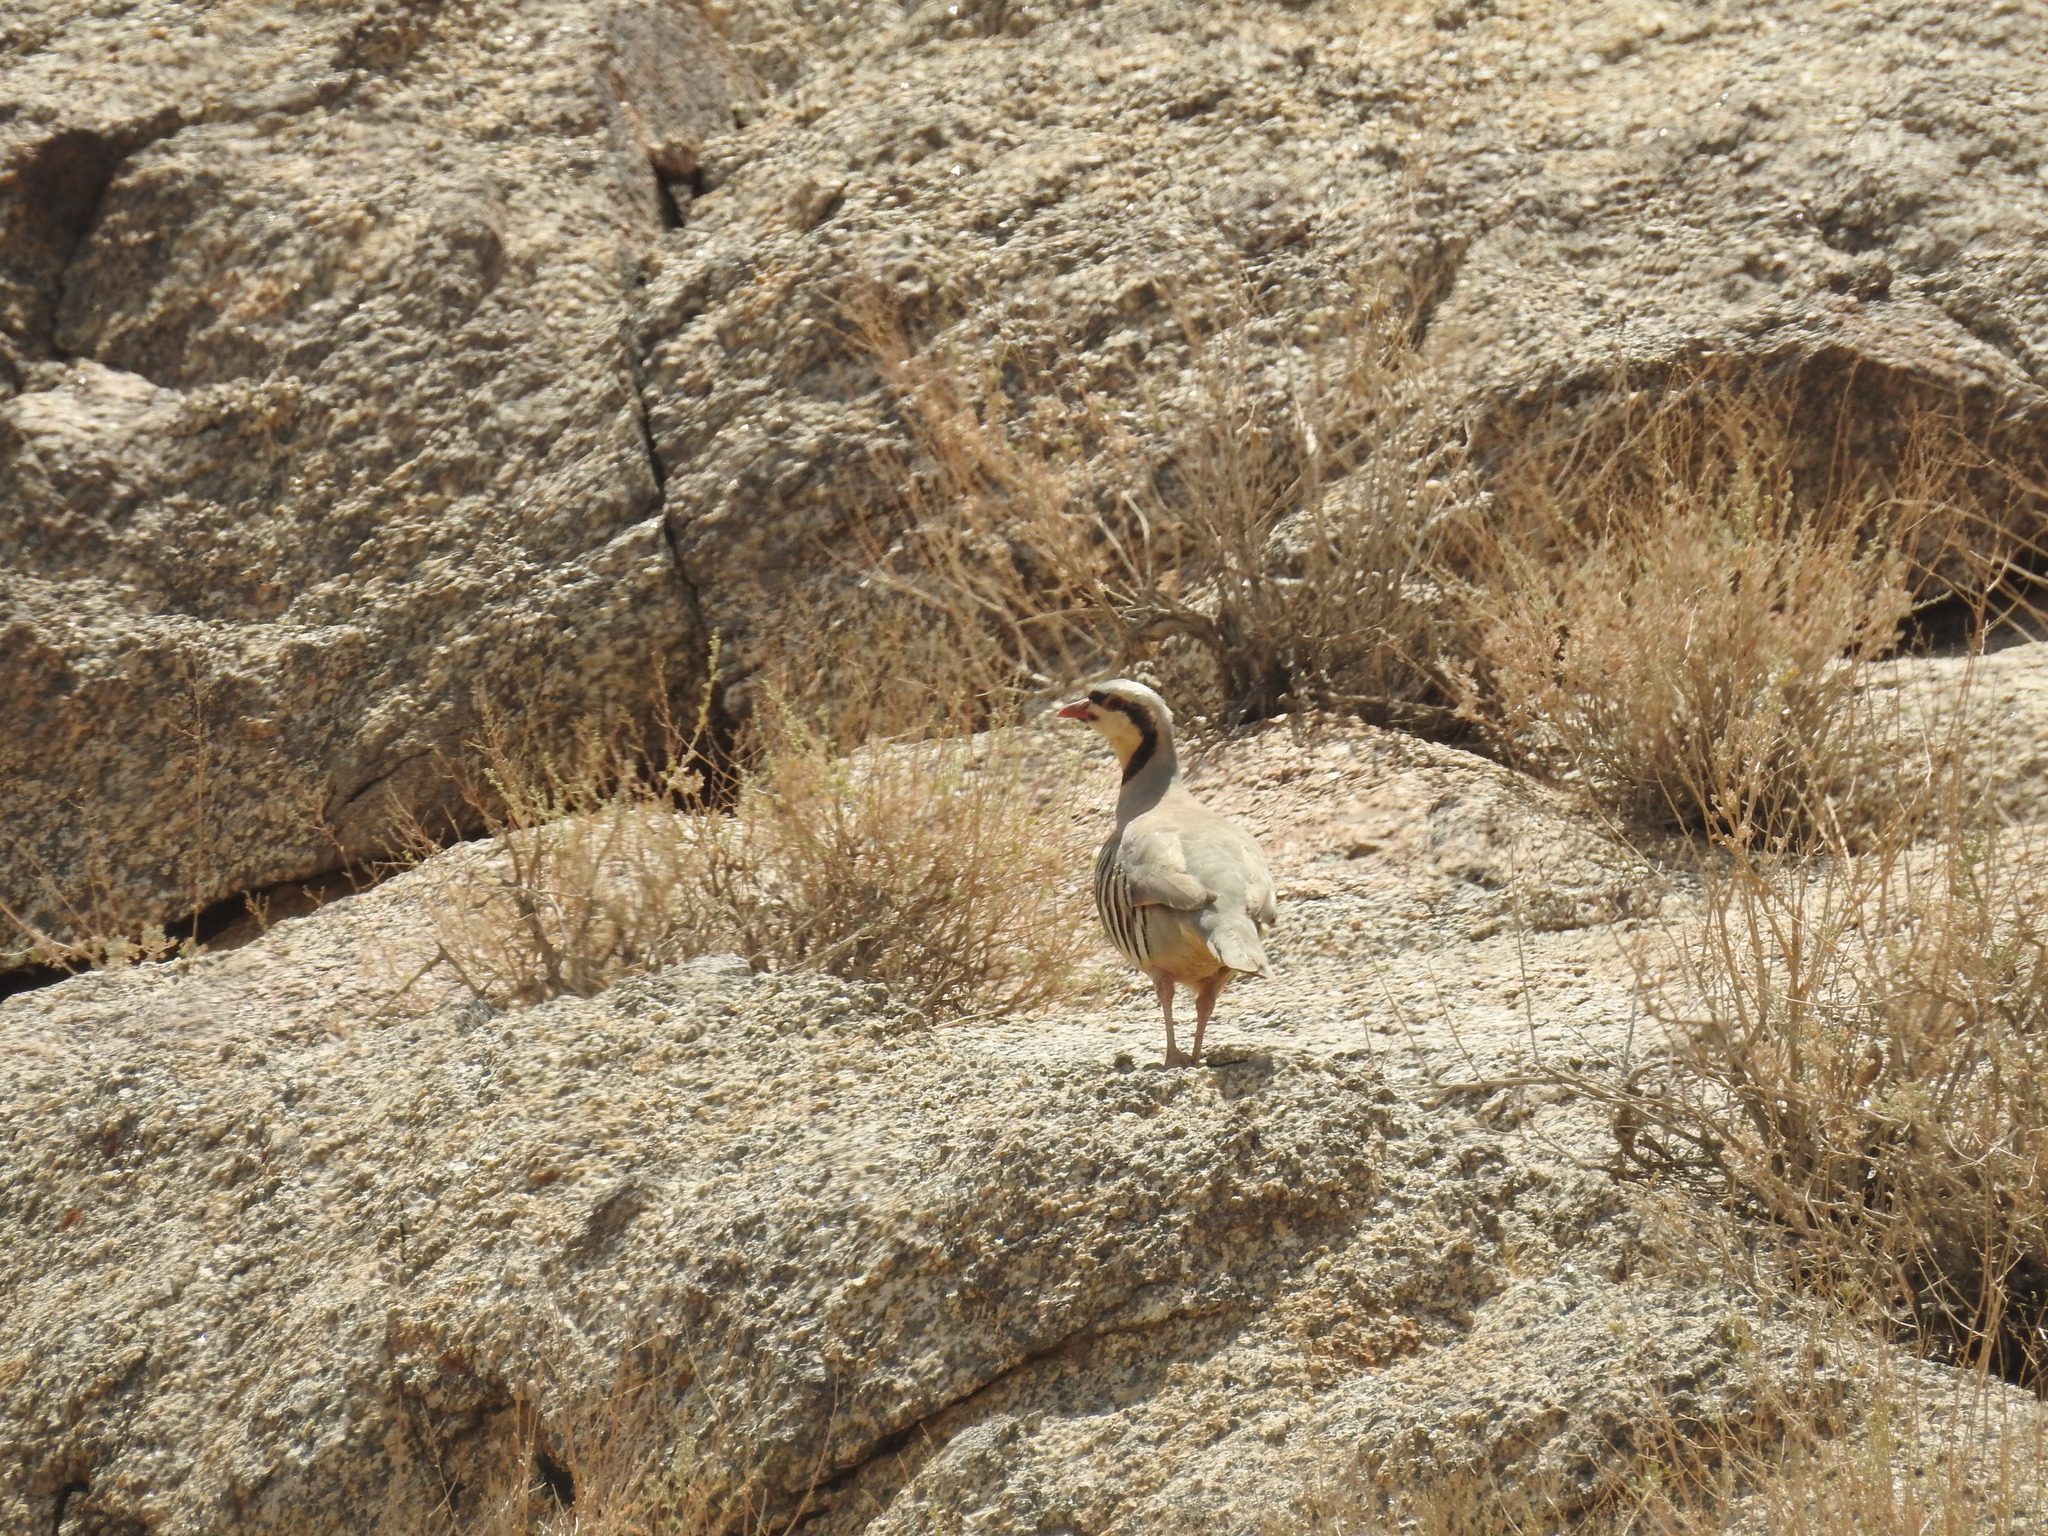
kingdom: Animalia
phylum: Chordata
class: Aves
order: Galliformes
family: Phasianidae
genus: Alectoris
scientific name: Alectoris chukar
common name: Chukar
